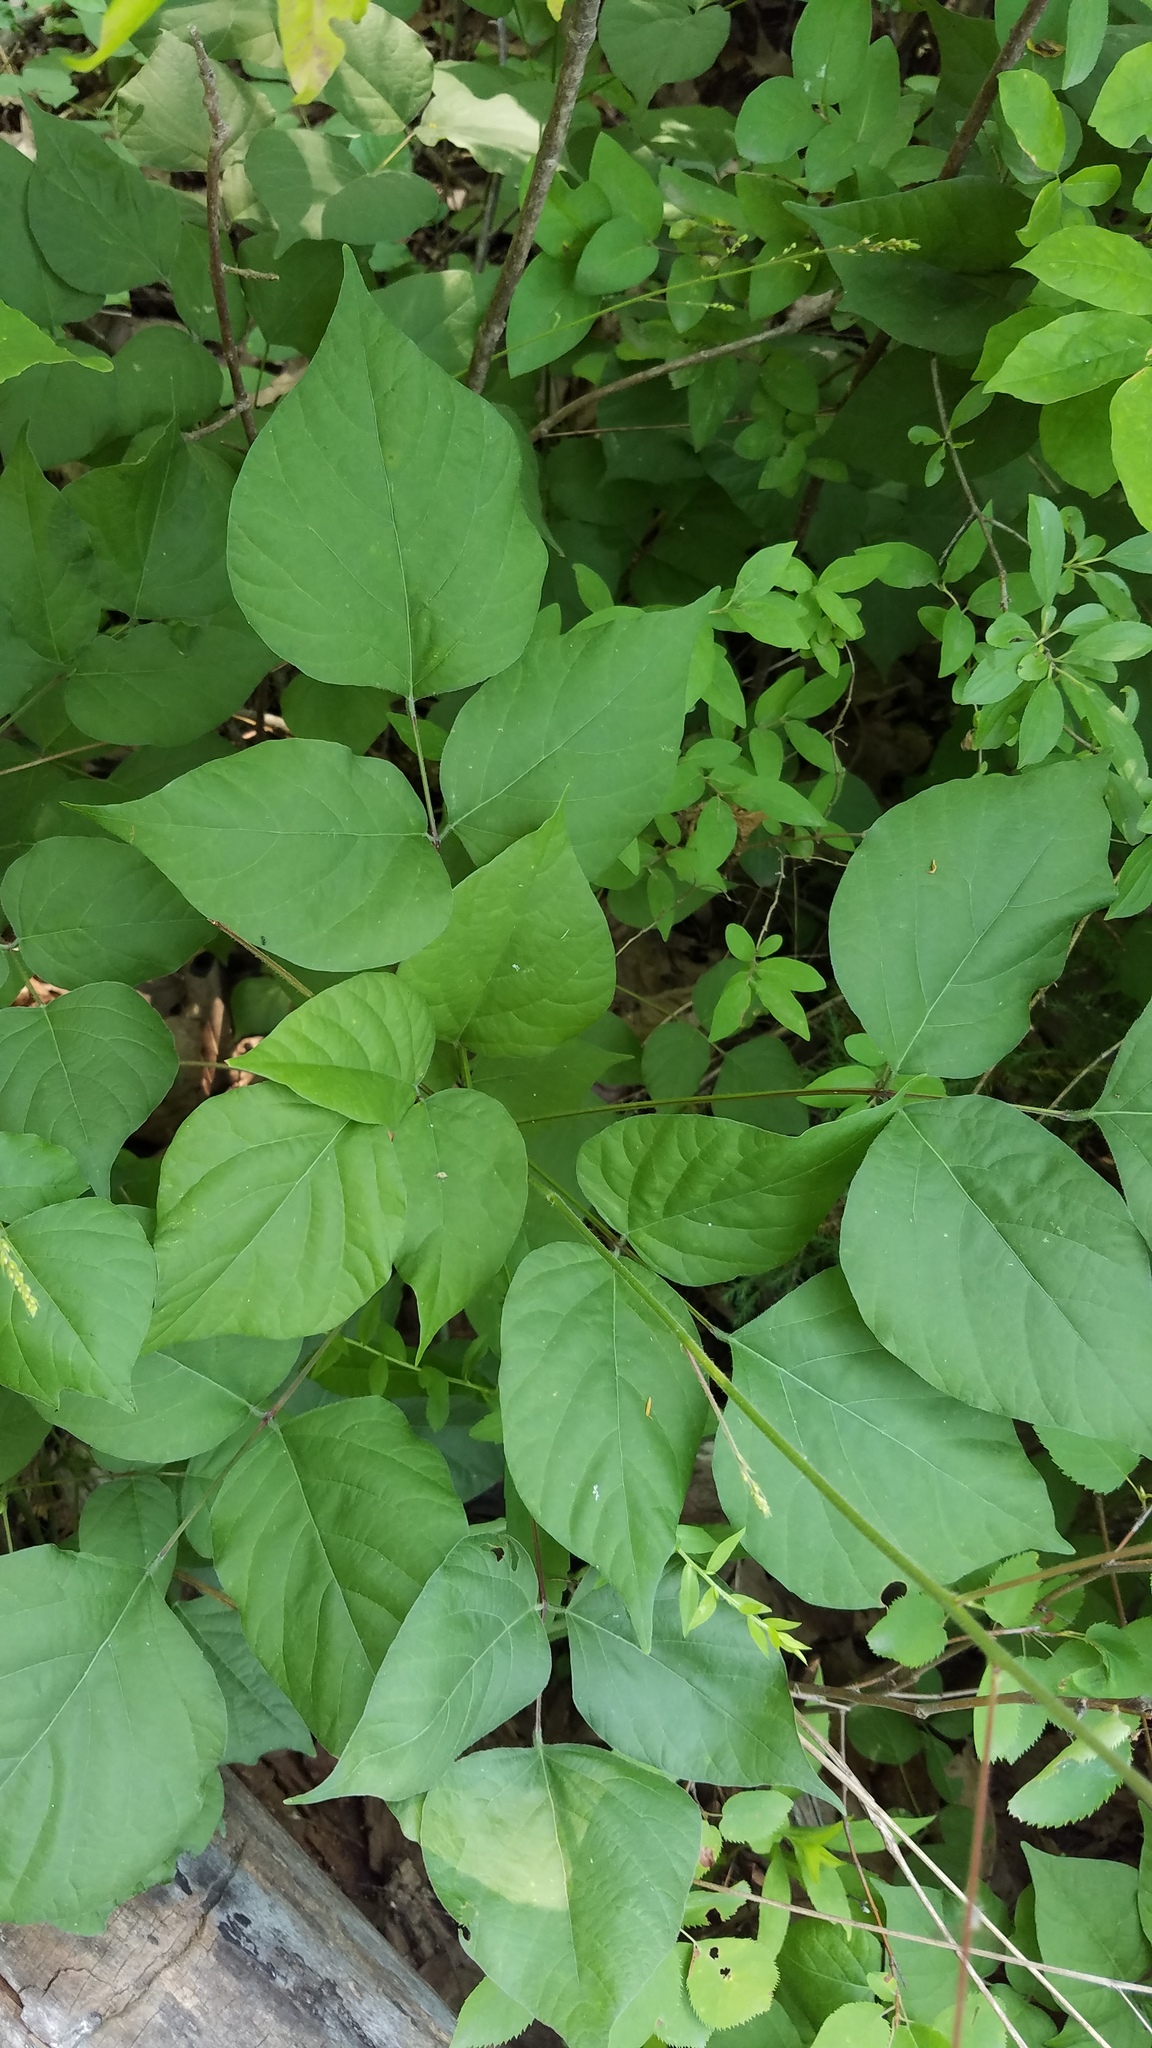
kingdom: Plantae
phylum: Tracheophyta
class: Magnoliopsida
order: Fabales
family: Fabaceae
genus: Hylodesmum
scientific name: Hylodesmum glutinosum
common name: Clustered-leaved tick-trefoil
